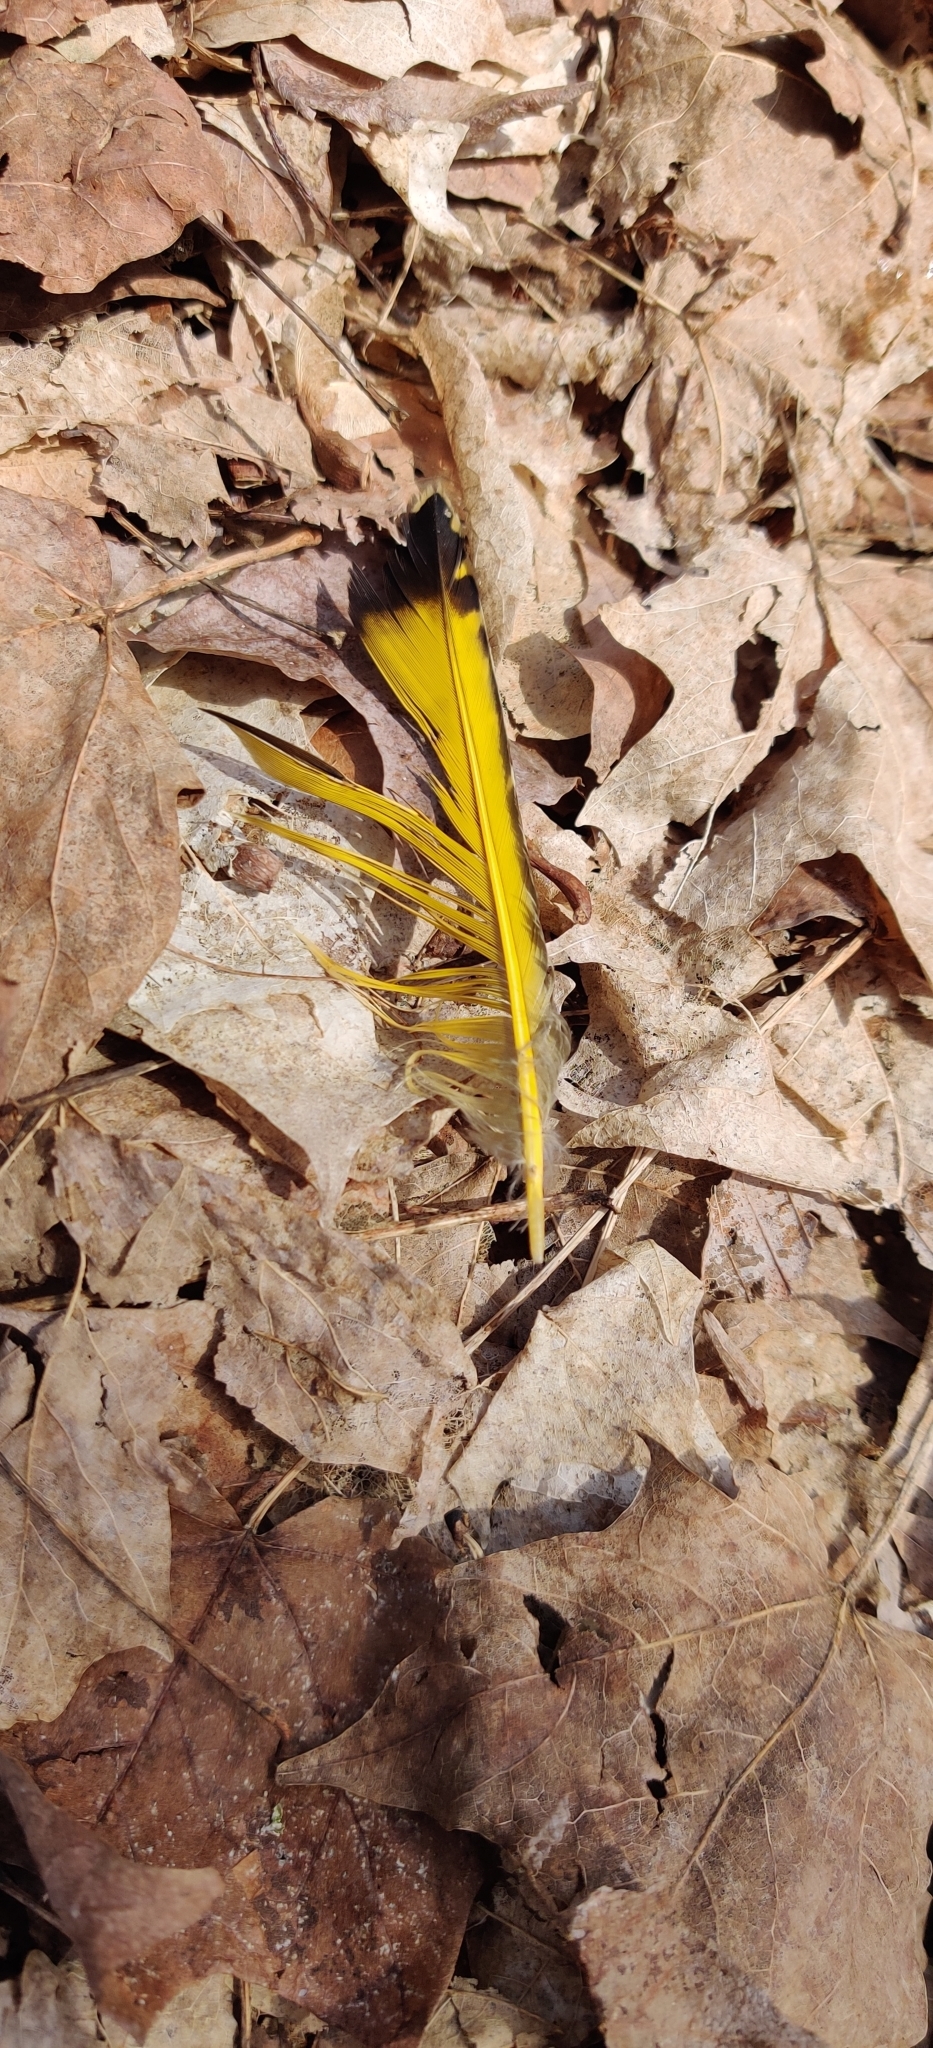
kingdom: Animalia
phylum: Chordata
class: Aves
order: Piciformes
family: Picidae
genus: Colaptes
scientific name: Colaptes auratus
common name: Northern flicker
